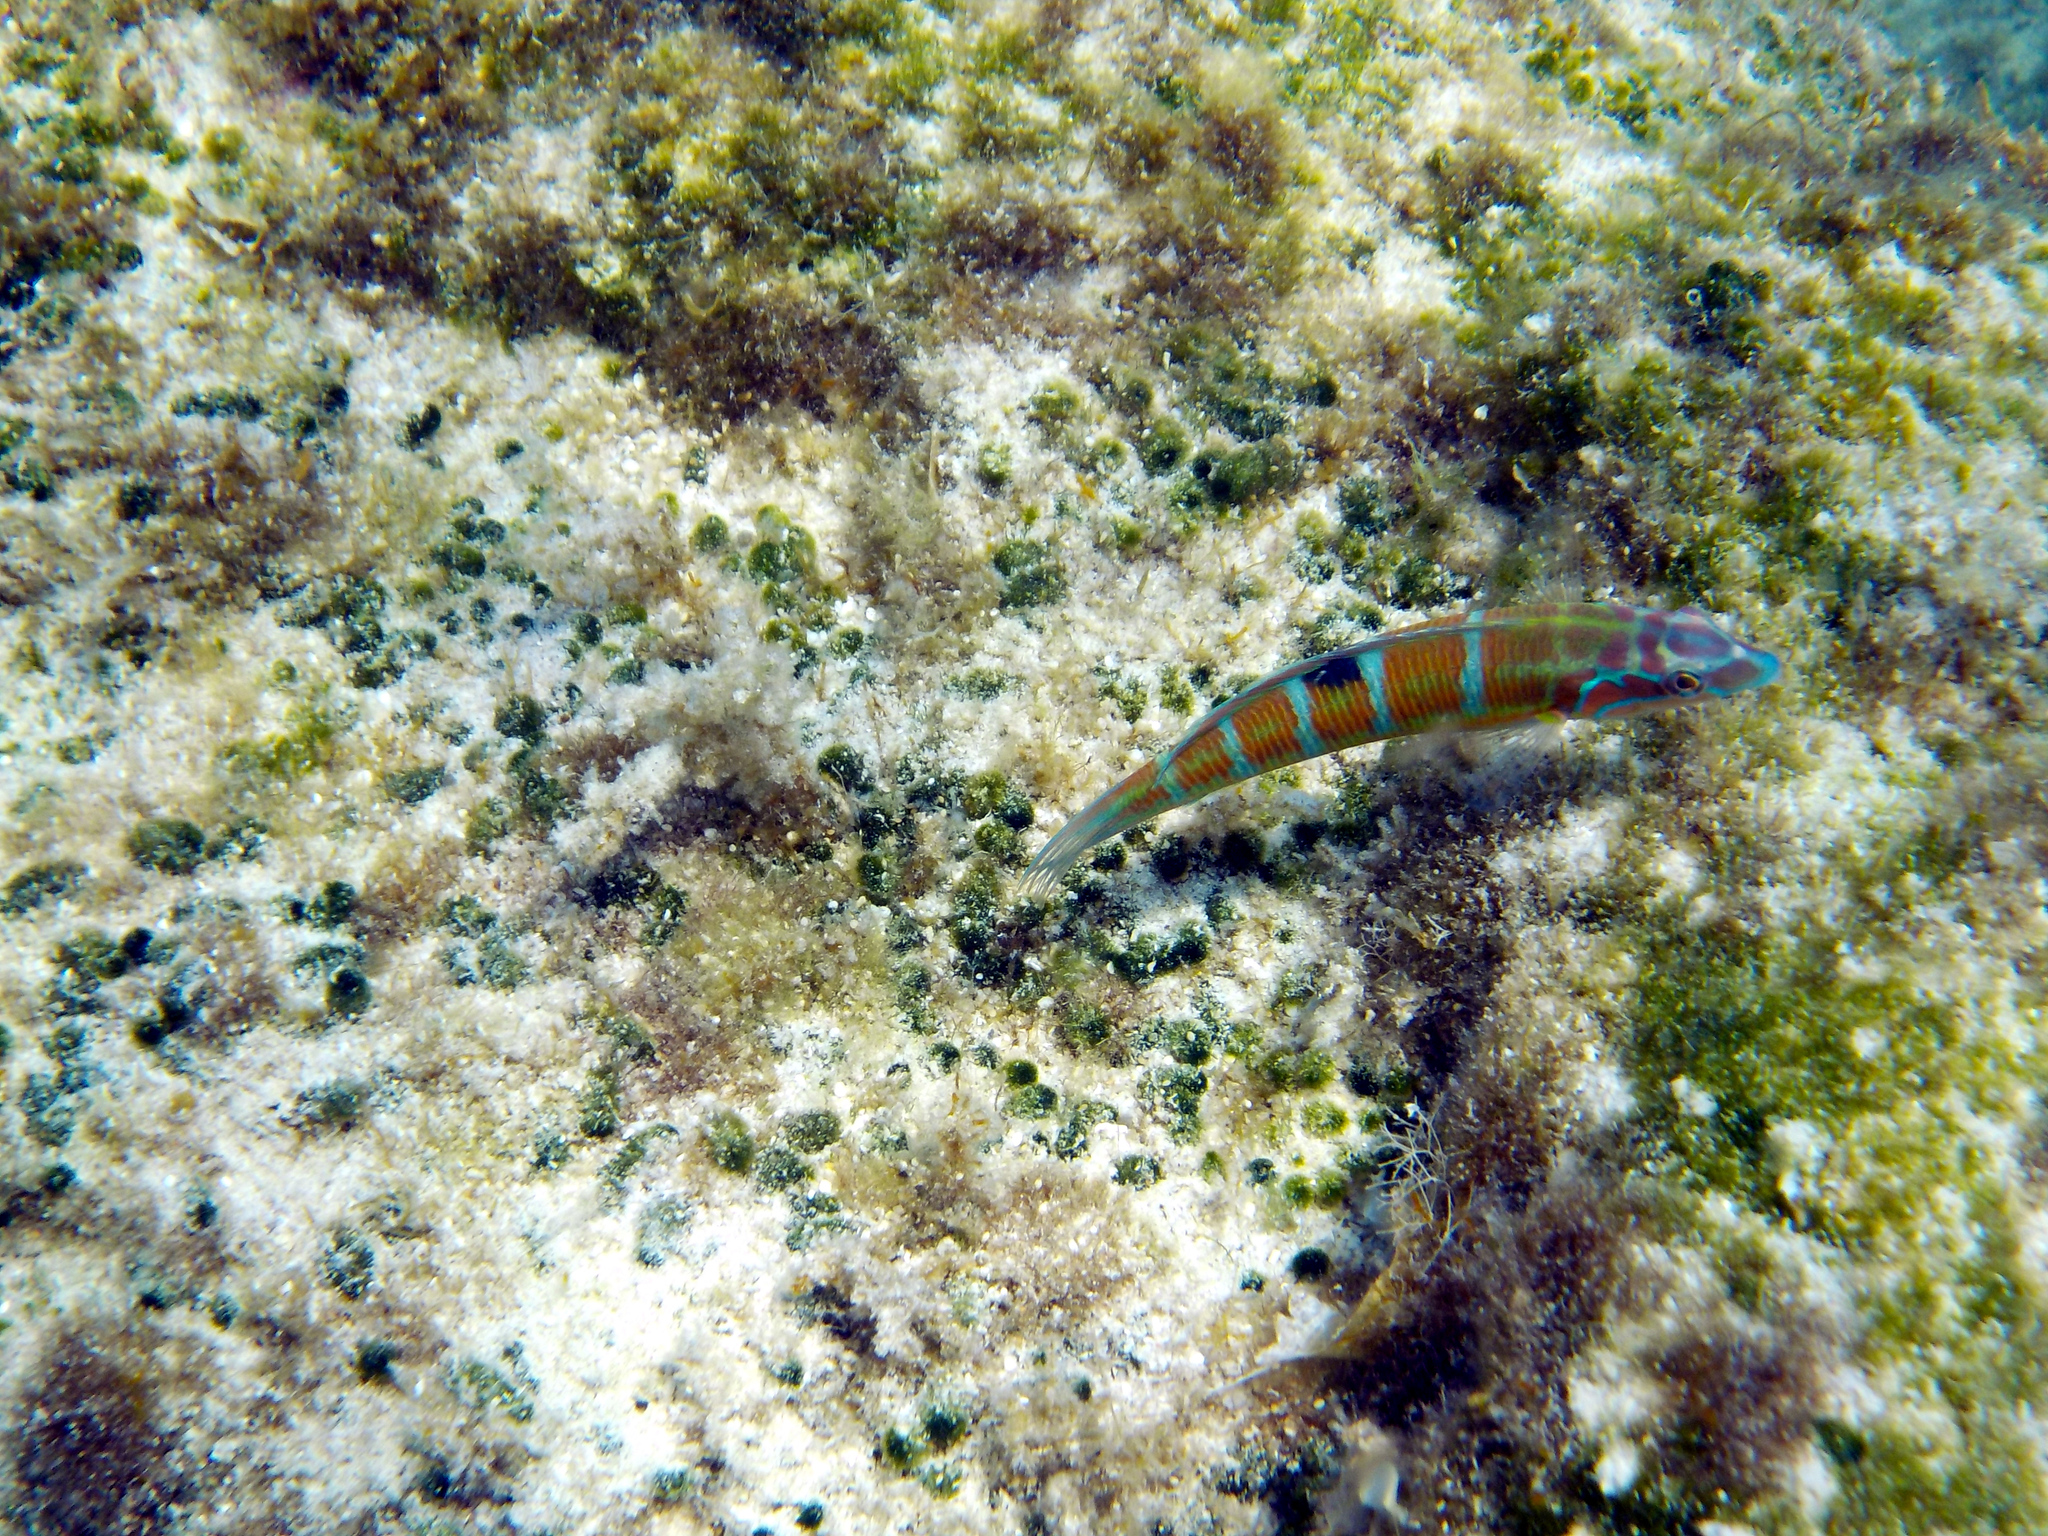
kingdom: Animalia
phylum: Chordata
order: Perciformes
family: Labridae
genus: Thalassoma
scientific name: Thalassoma pavo
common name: Ornate wrasse
